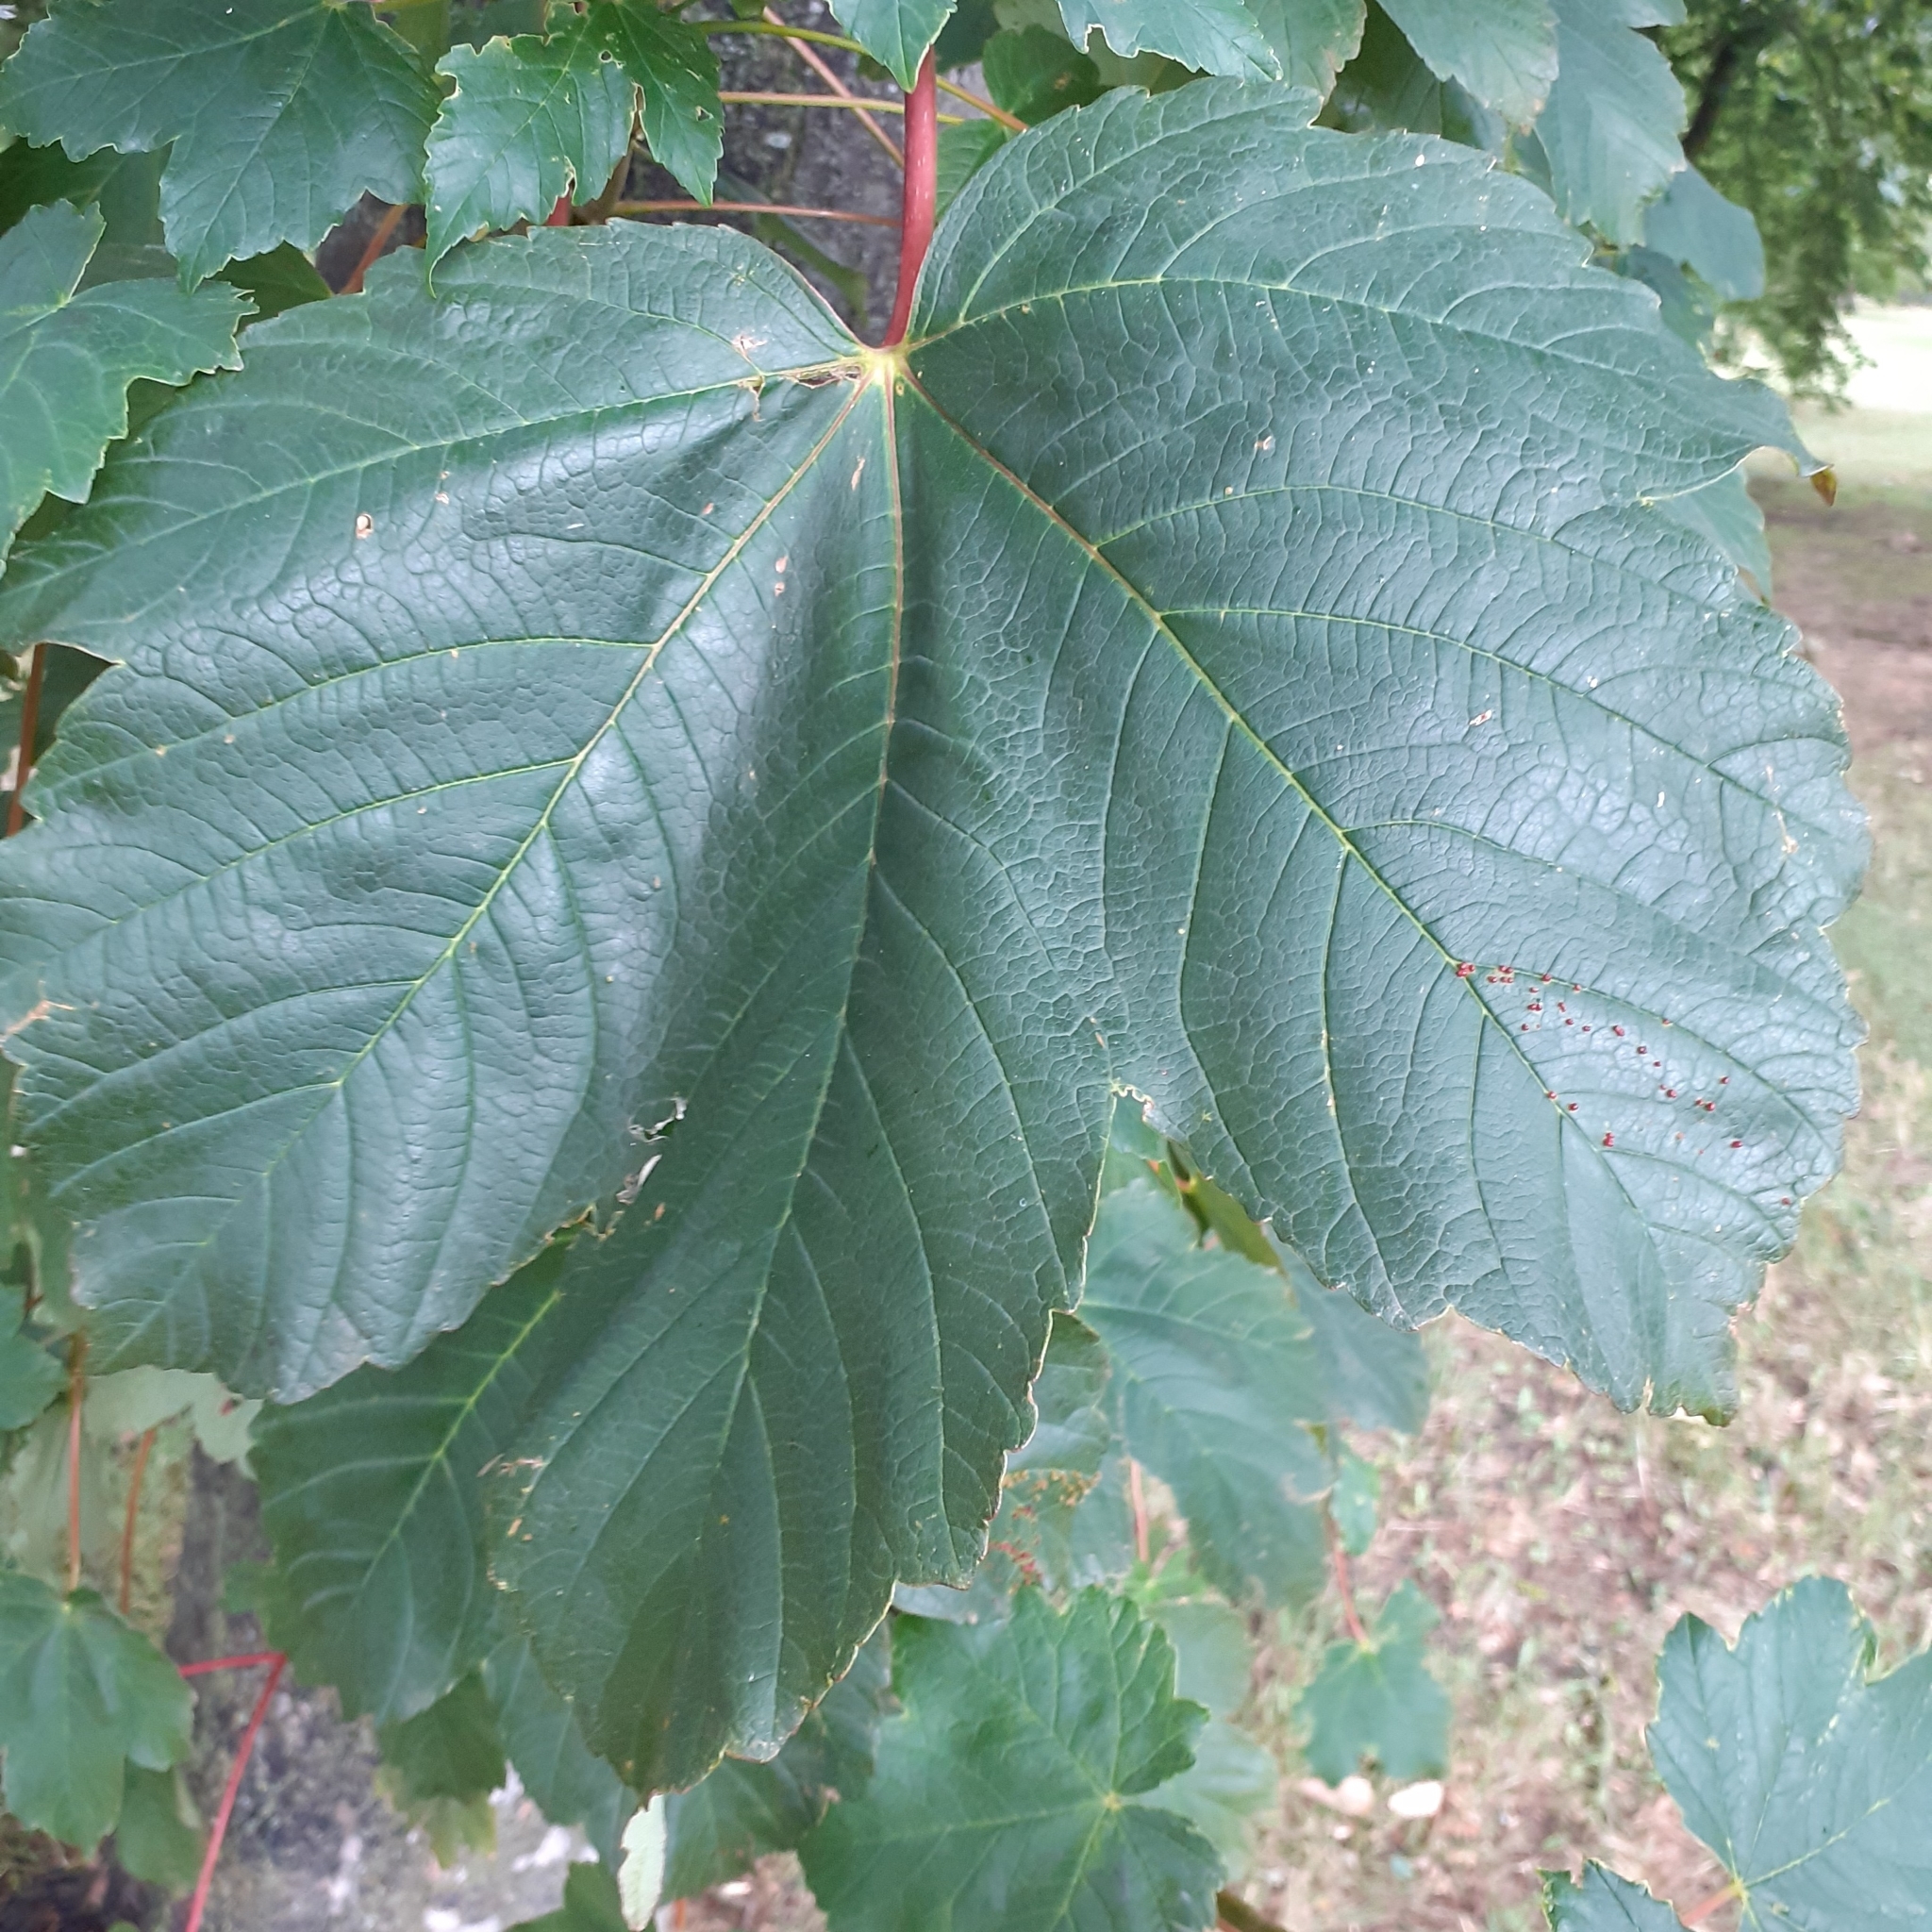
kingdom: Plantae
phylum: Tracheophyta
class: Magnoliopsida
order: Sapindales
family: Sapindaceae
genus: Acer
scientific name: Acer pseudoplatanus
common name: Sycamore
